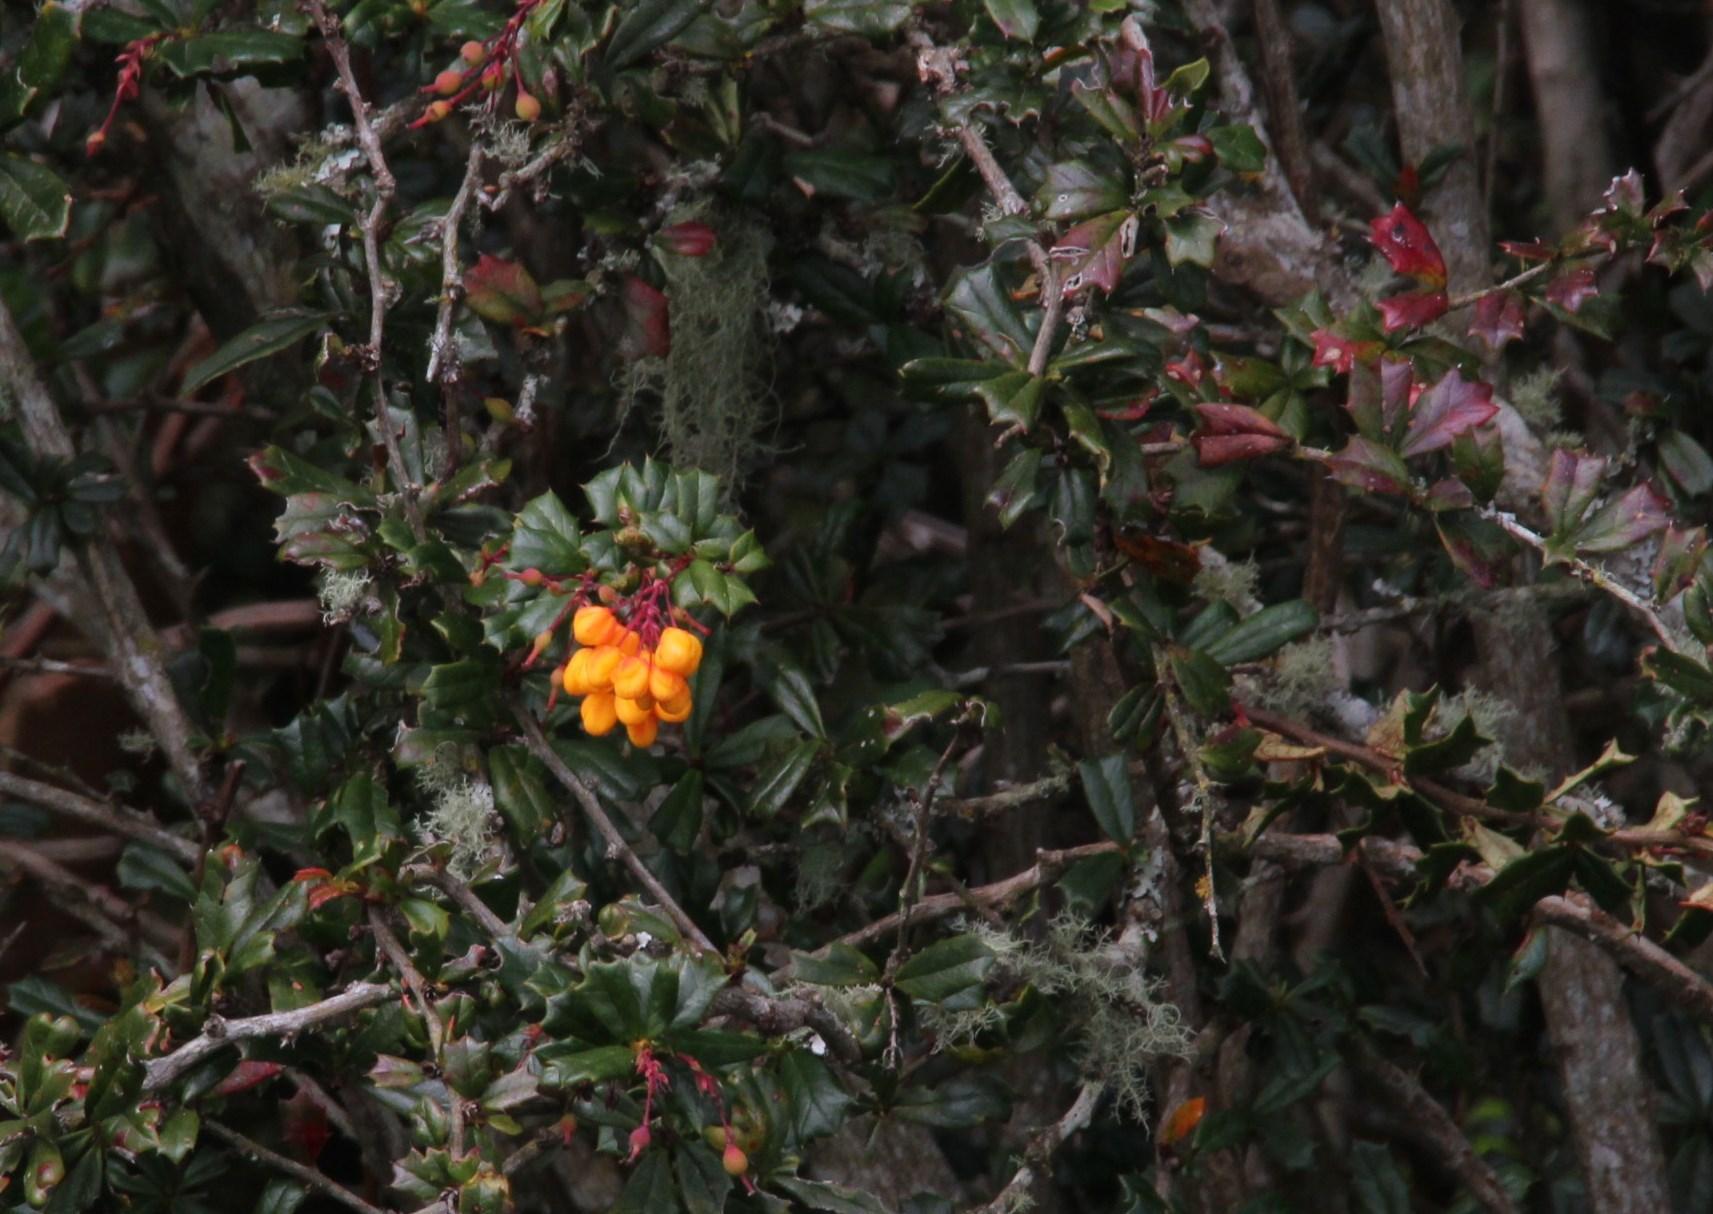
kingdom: Plantae
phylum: Tracheophyta
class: Magnoliopsida
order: Ranunculales
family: Berberidaceae
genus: Berberis
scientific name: Berberis darwinii
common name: Darwin's barberry
